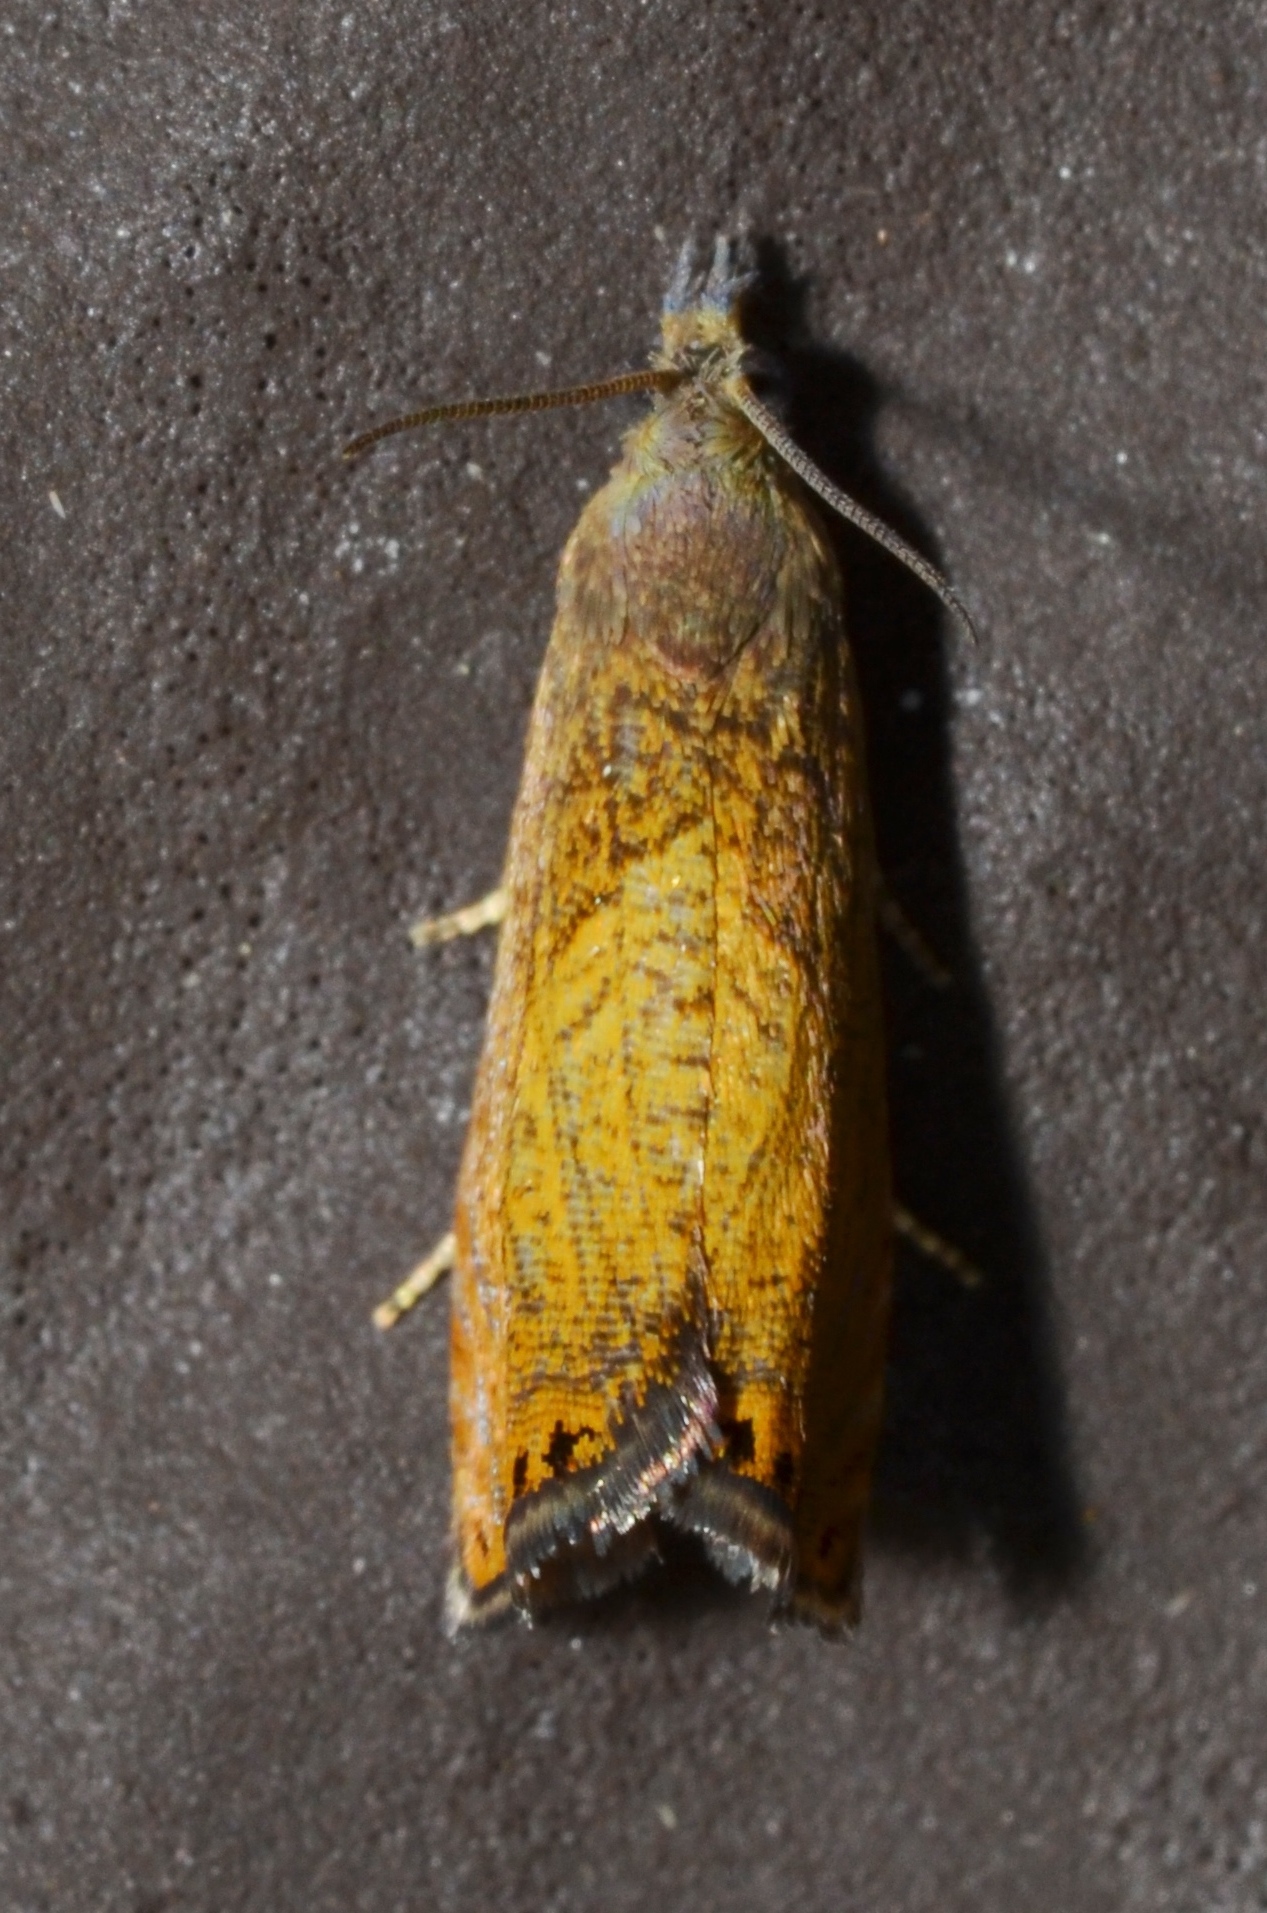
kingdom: Animalia
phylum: Arthropoda
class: Insecta
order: Lepidoptera
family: Tortricidae
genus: Dichrorampha
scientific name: Dichrorampha bittana
